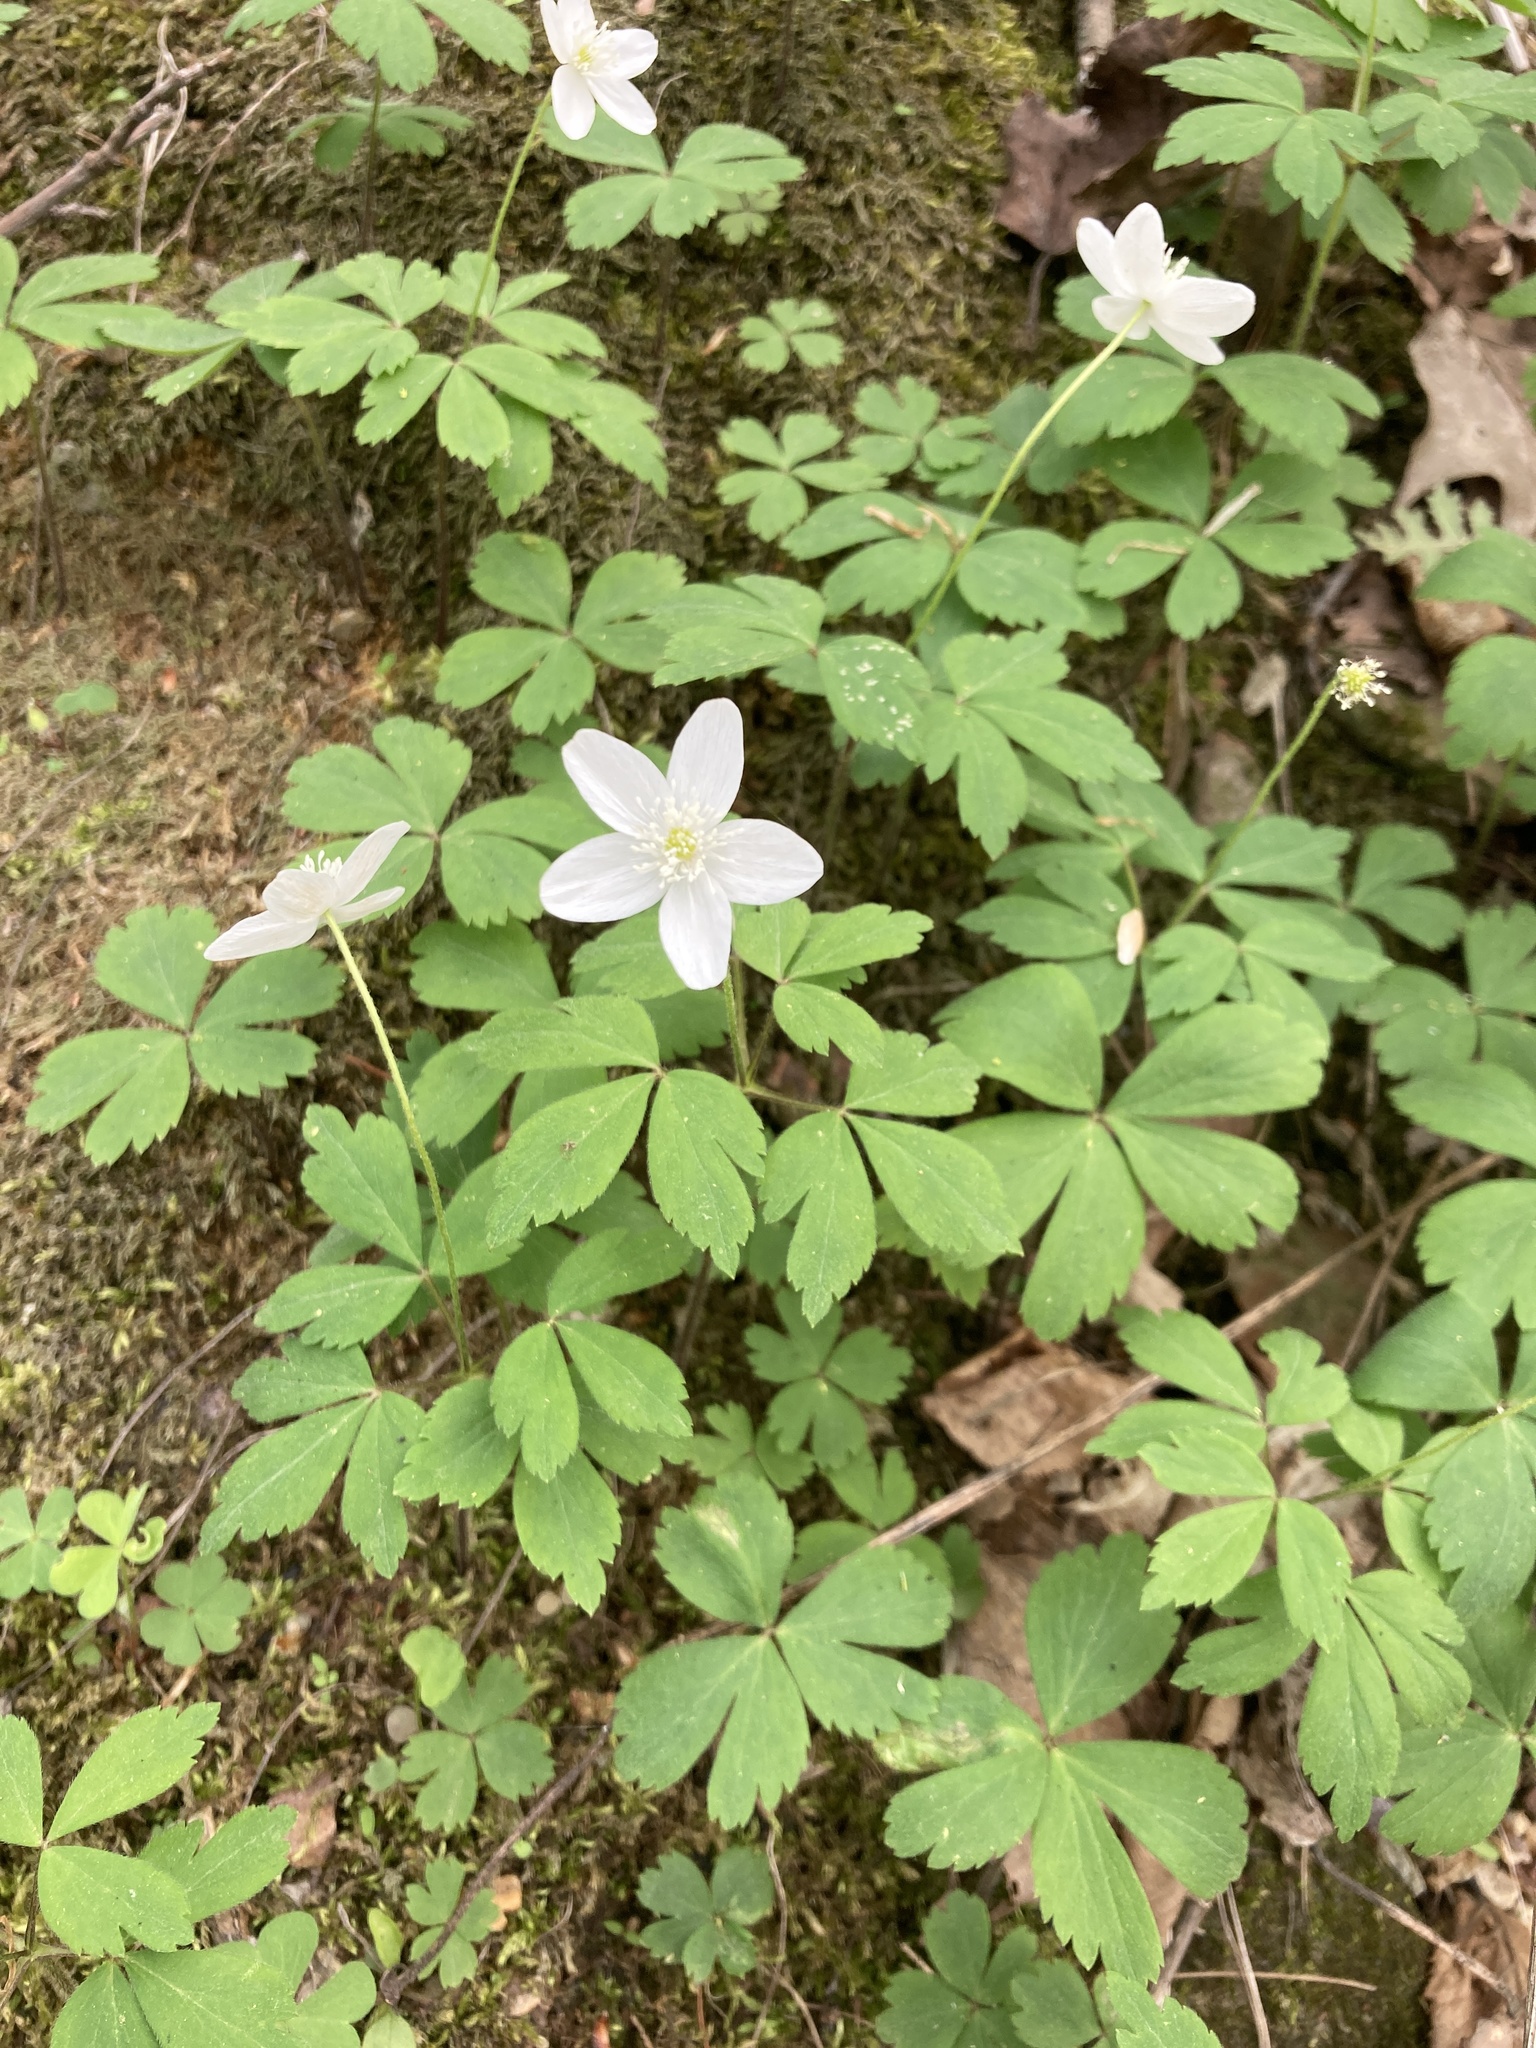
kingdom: Plantae
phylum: Tracheophyta
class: Magnoliopsida
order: Ranunculales
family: Ranunculaceae
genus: Anemone
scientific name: Anemone quinquefolia
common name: Wood anemone
